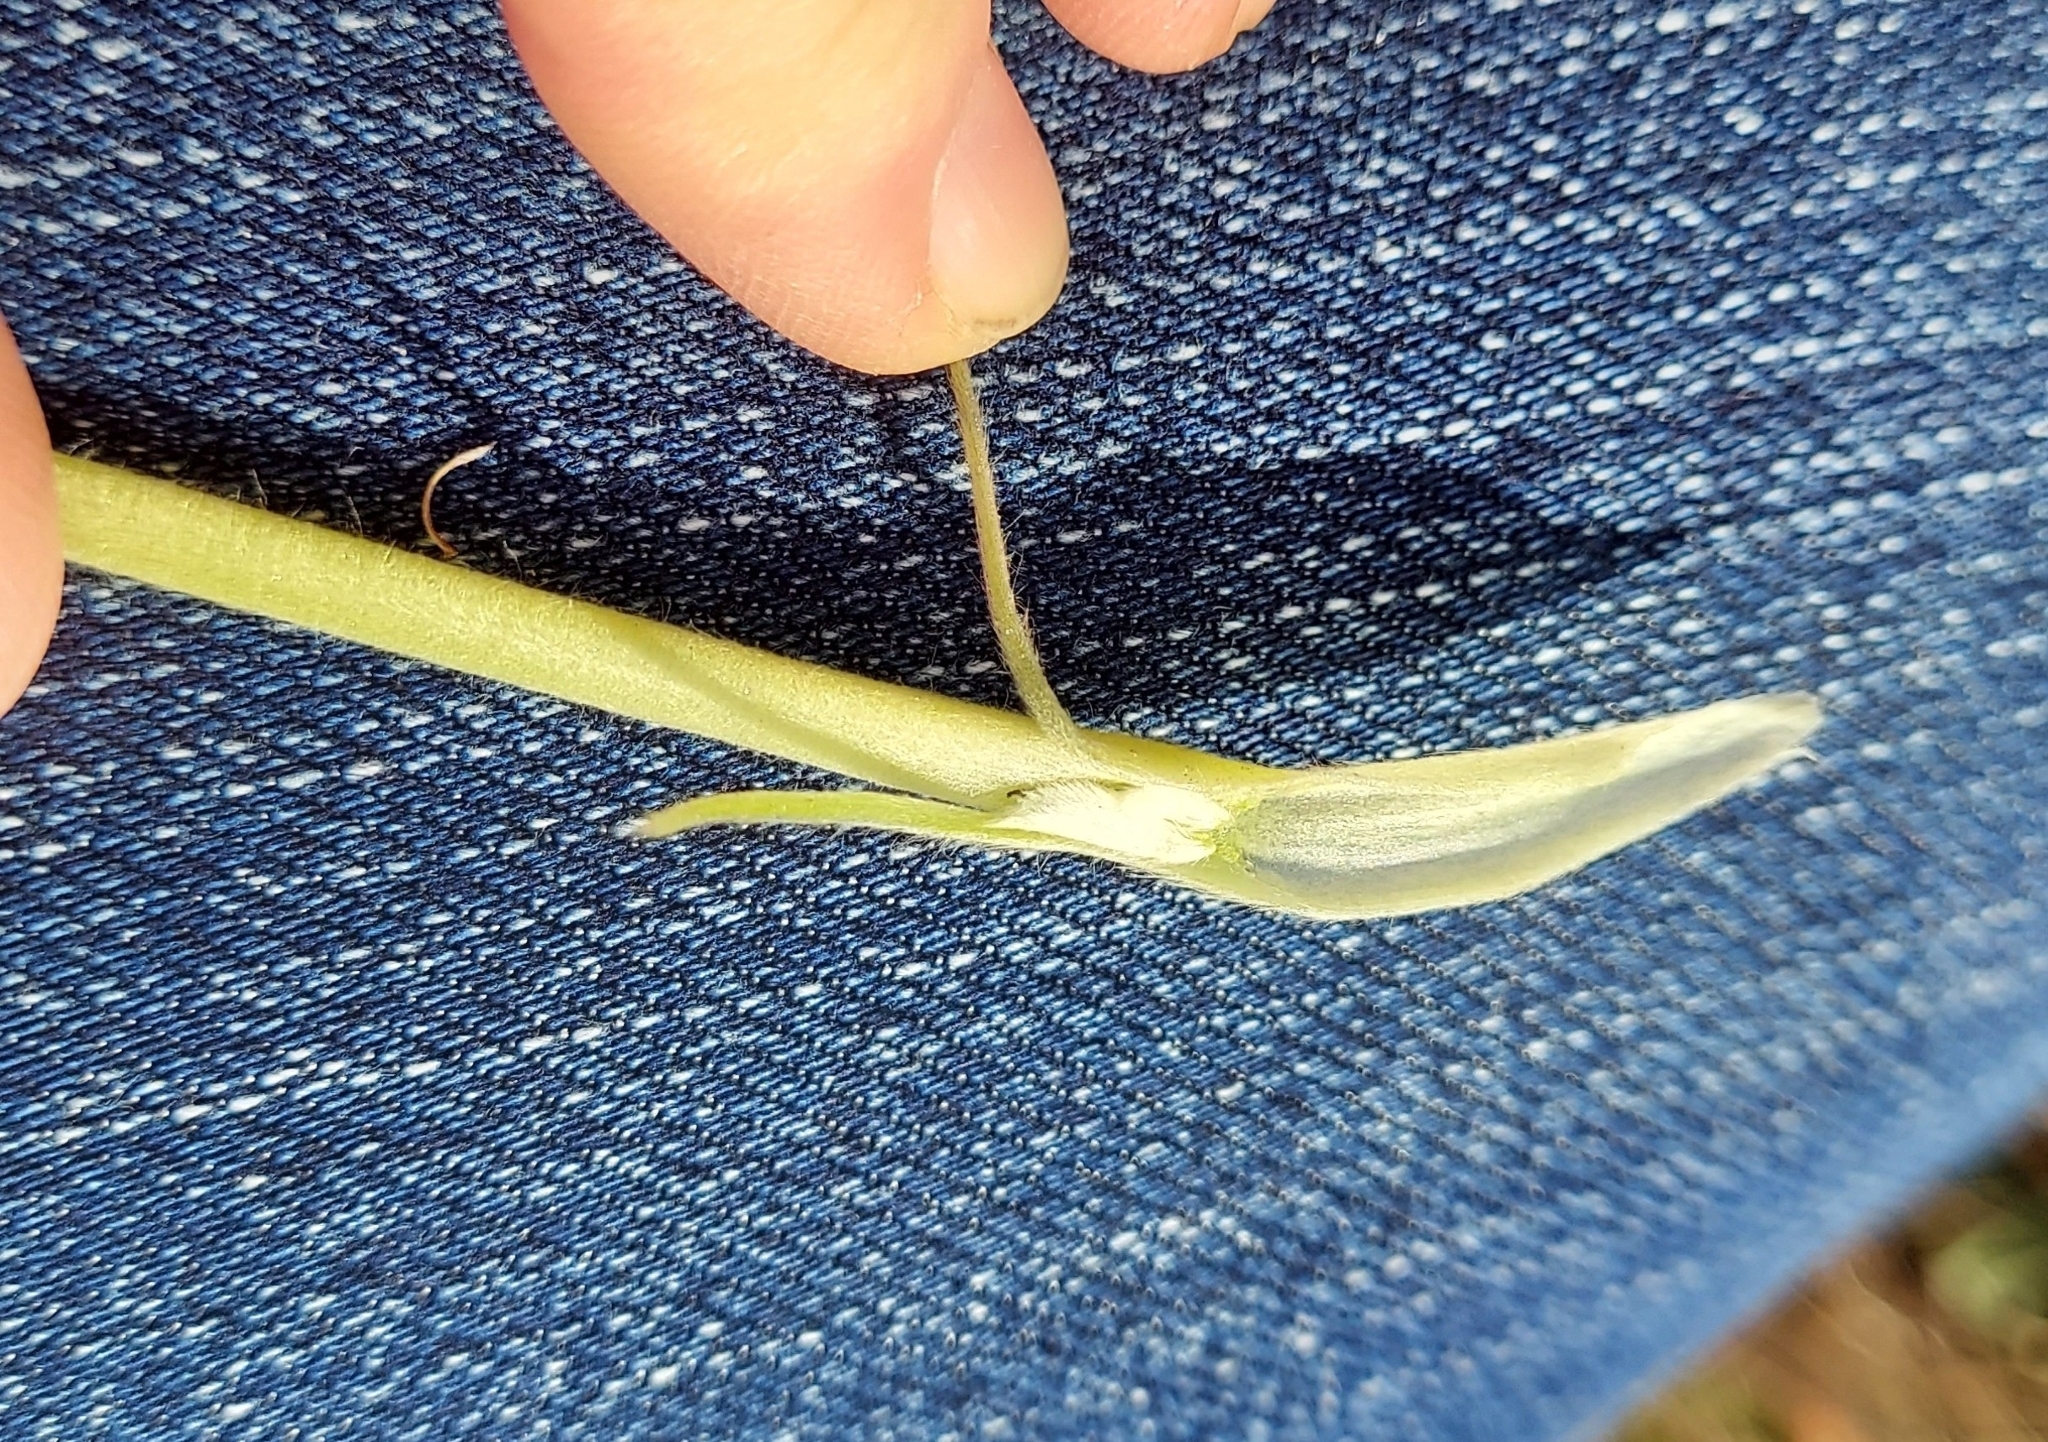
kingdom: Plantae
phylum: Tracheophyta
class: Magnoliopsida
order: Fabales
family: Fabaceae
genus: Lupinus
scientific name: Lupinus
